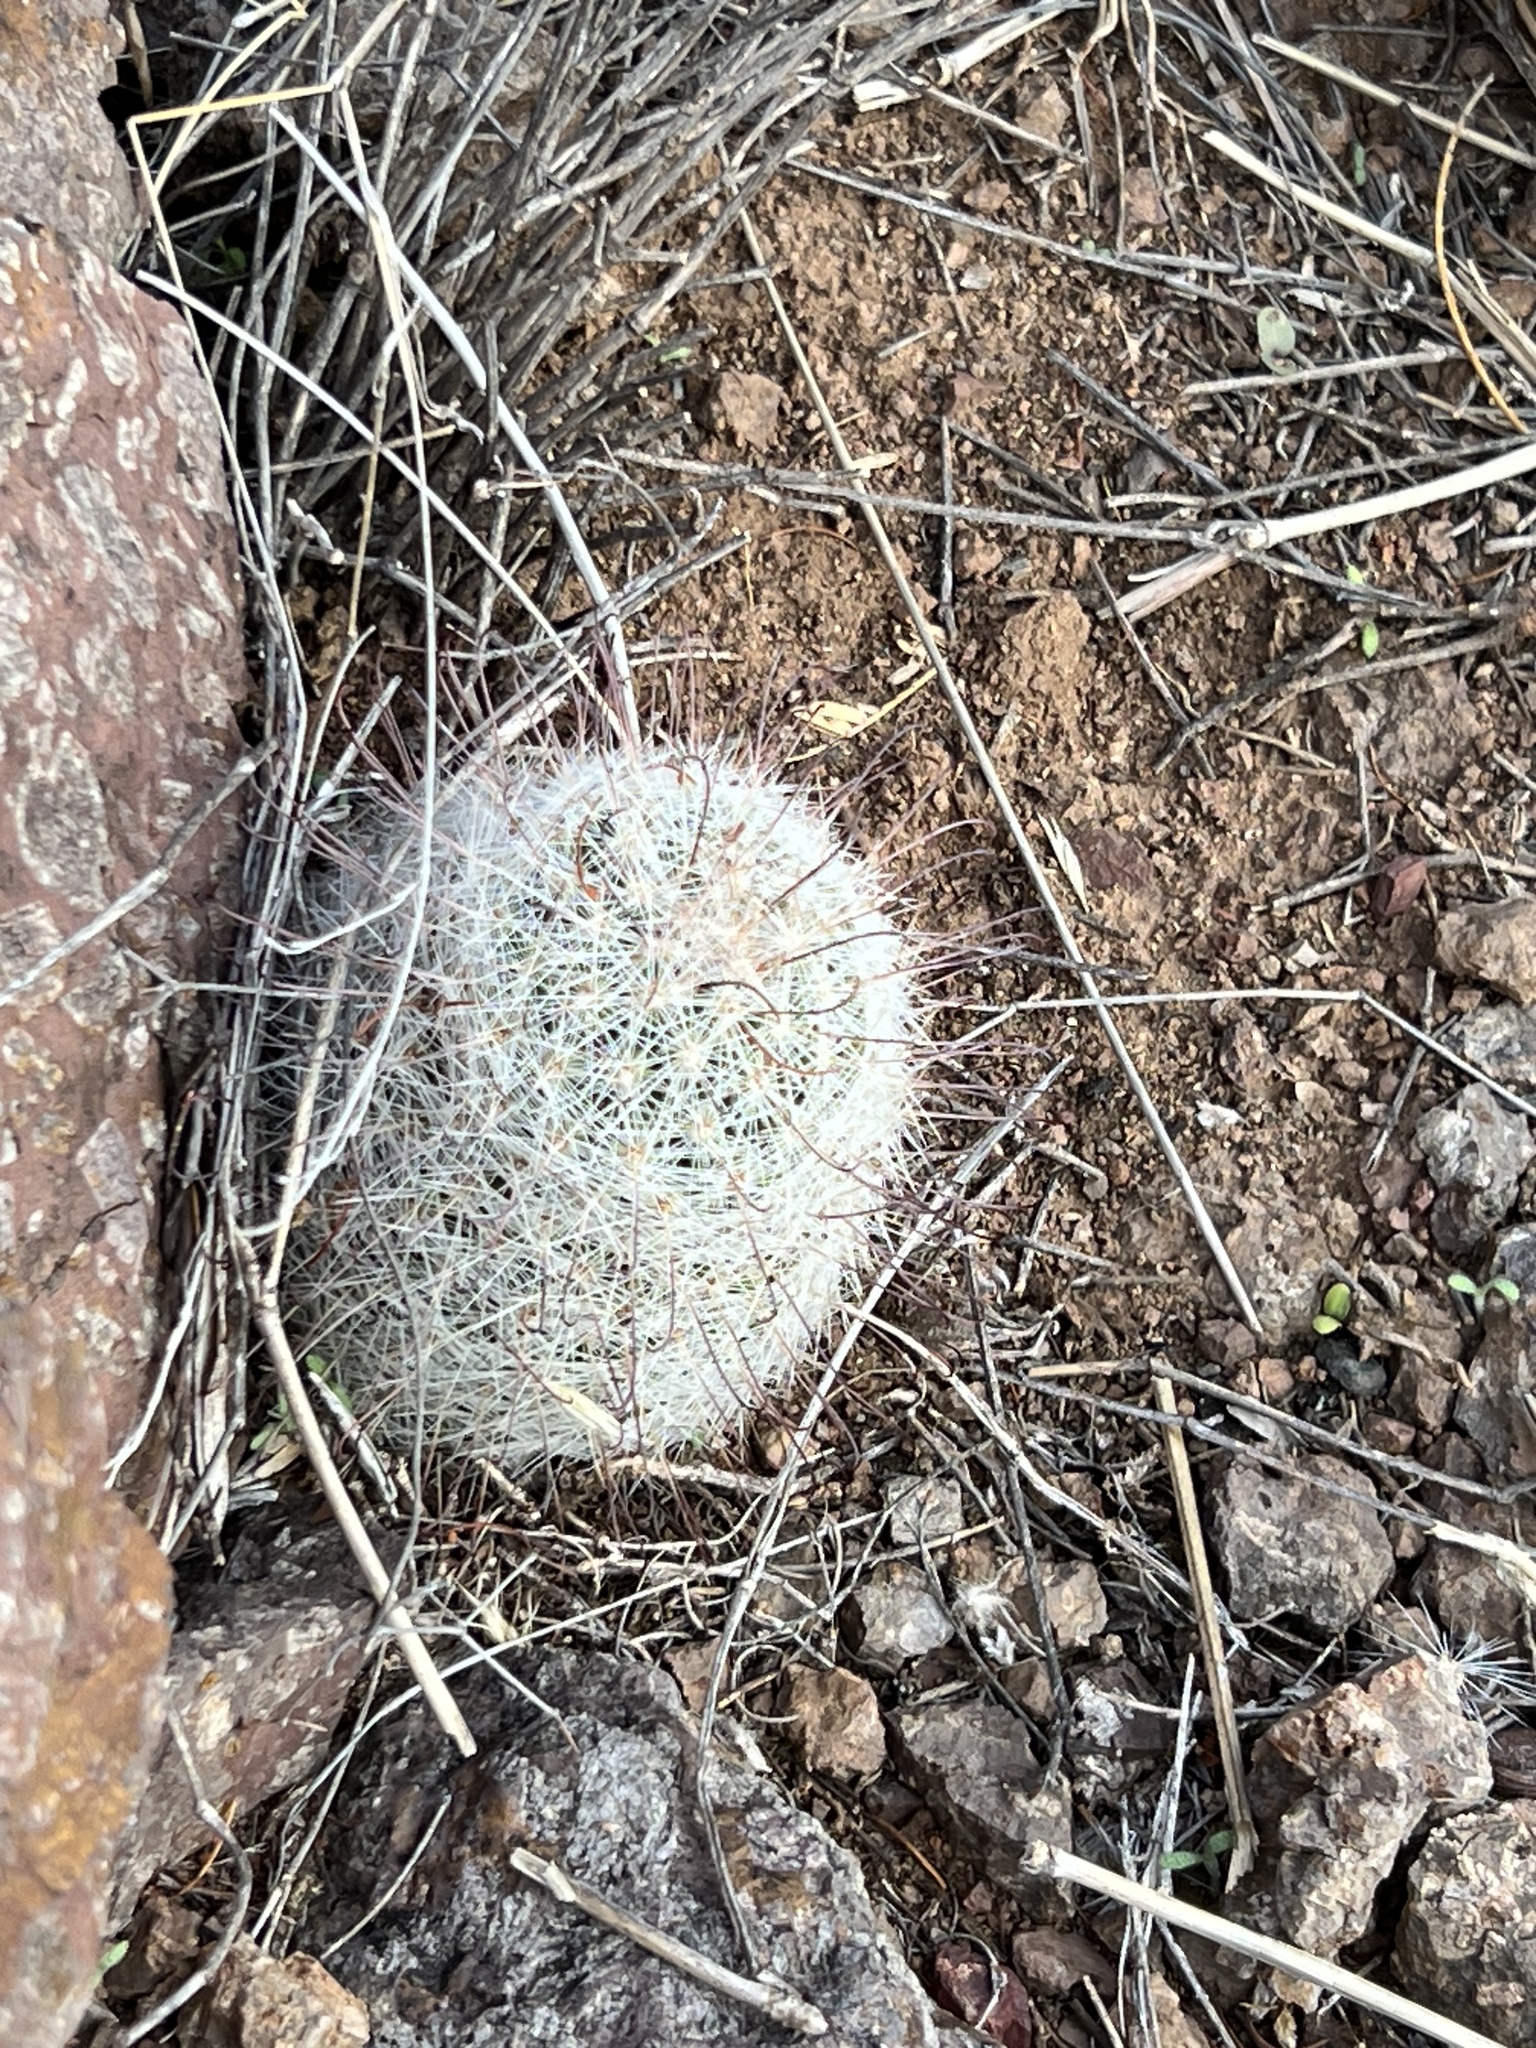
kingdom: Plantae
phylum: Tracheophyta
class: Magnoliopsida
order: Caryophyllales
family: Cactaceae
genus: Cochemiea
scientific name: Cochemiea grahamii
